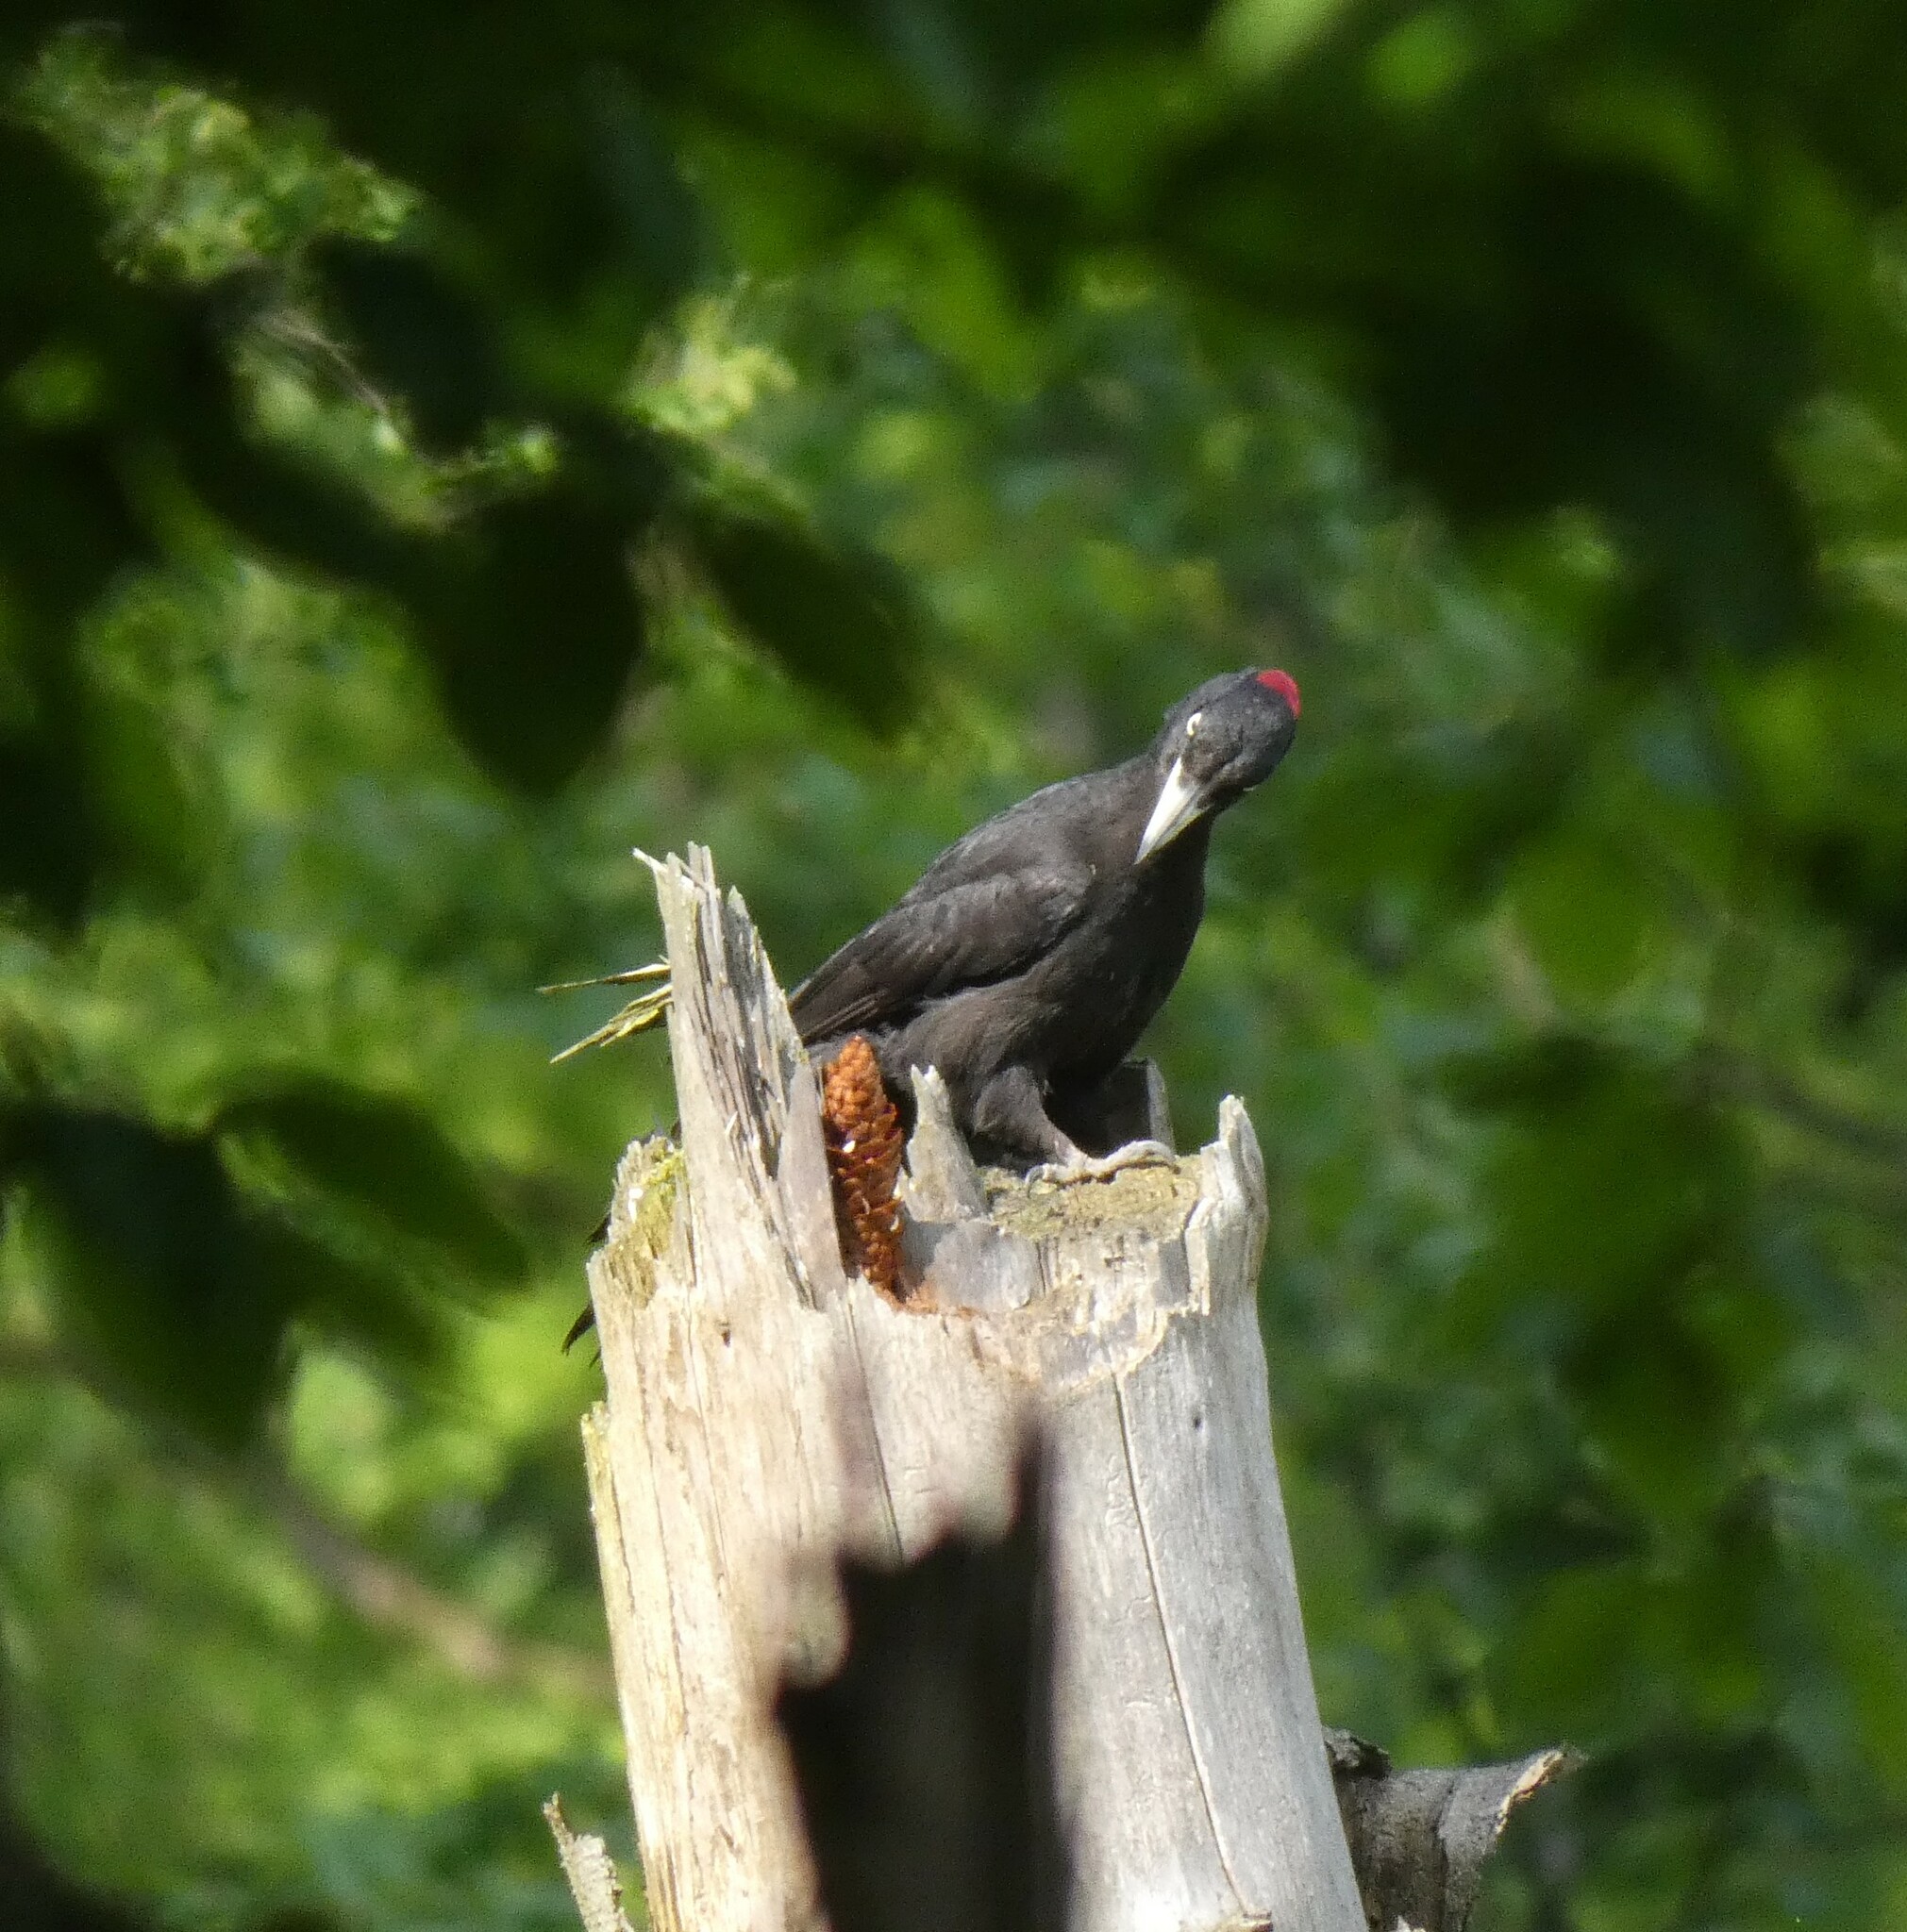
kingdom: Animalia
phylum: Chordata
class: Aves
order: Piciformes
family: Picidae
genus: Dryocopus
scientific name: Dryocopus martius
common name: Black woodpecker
